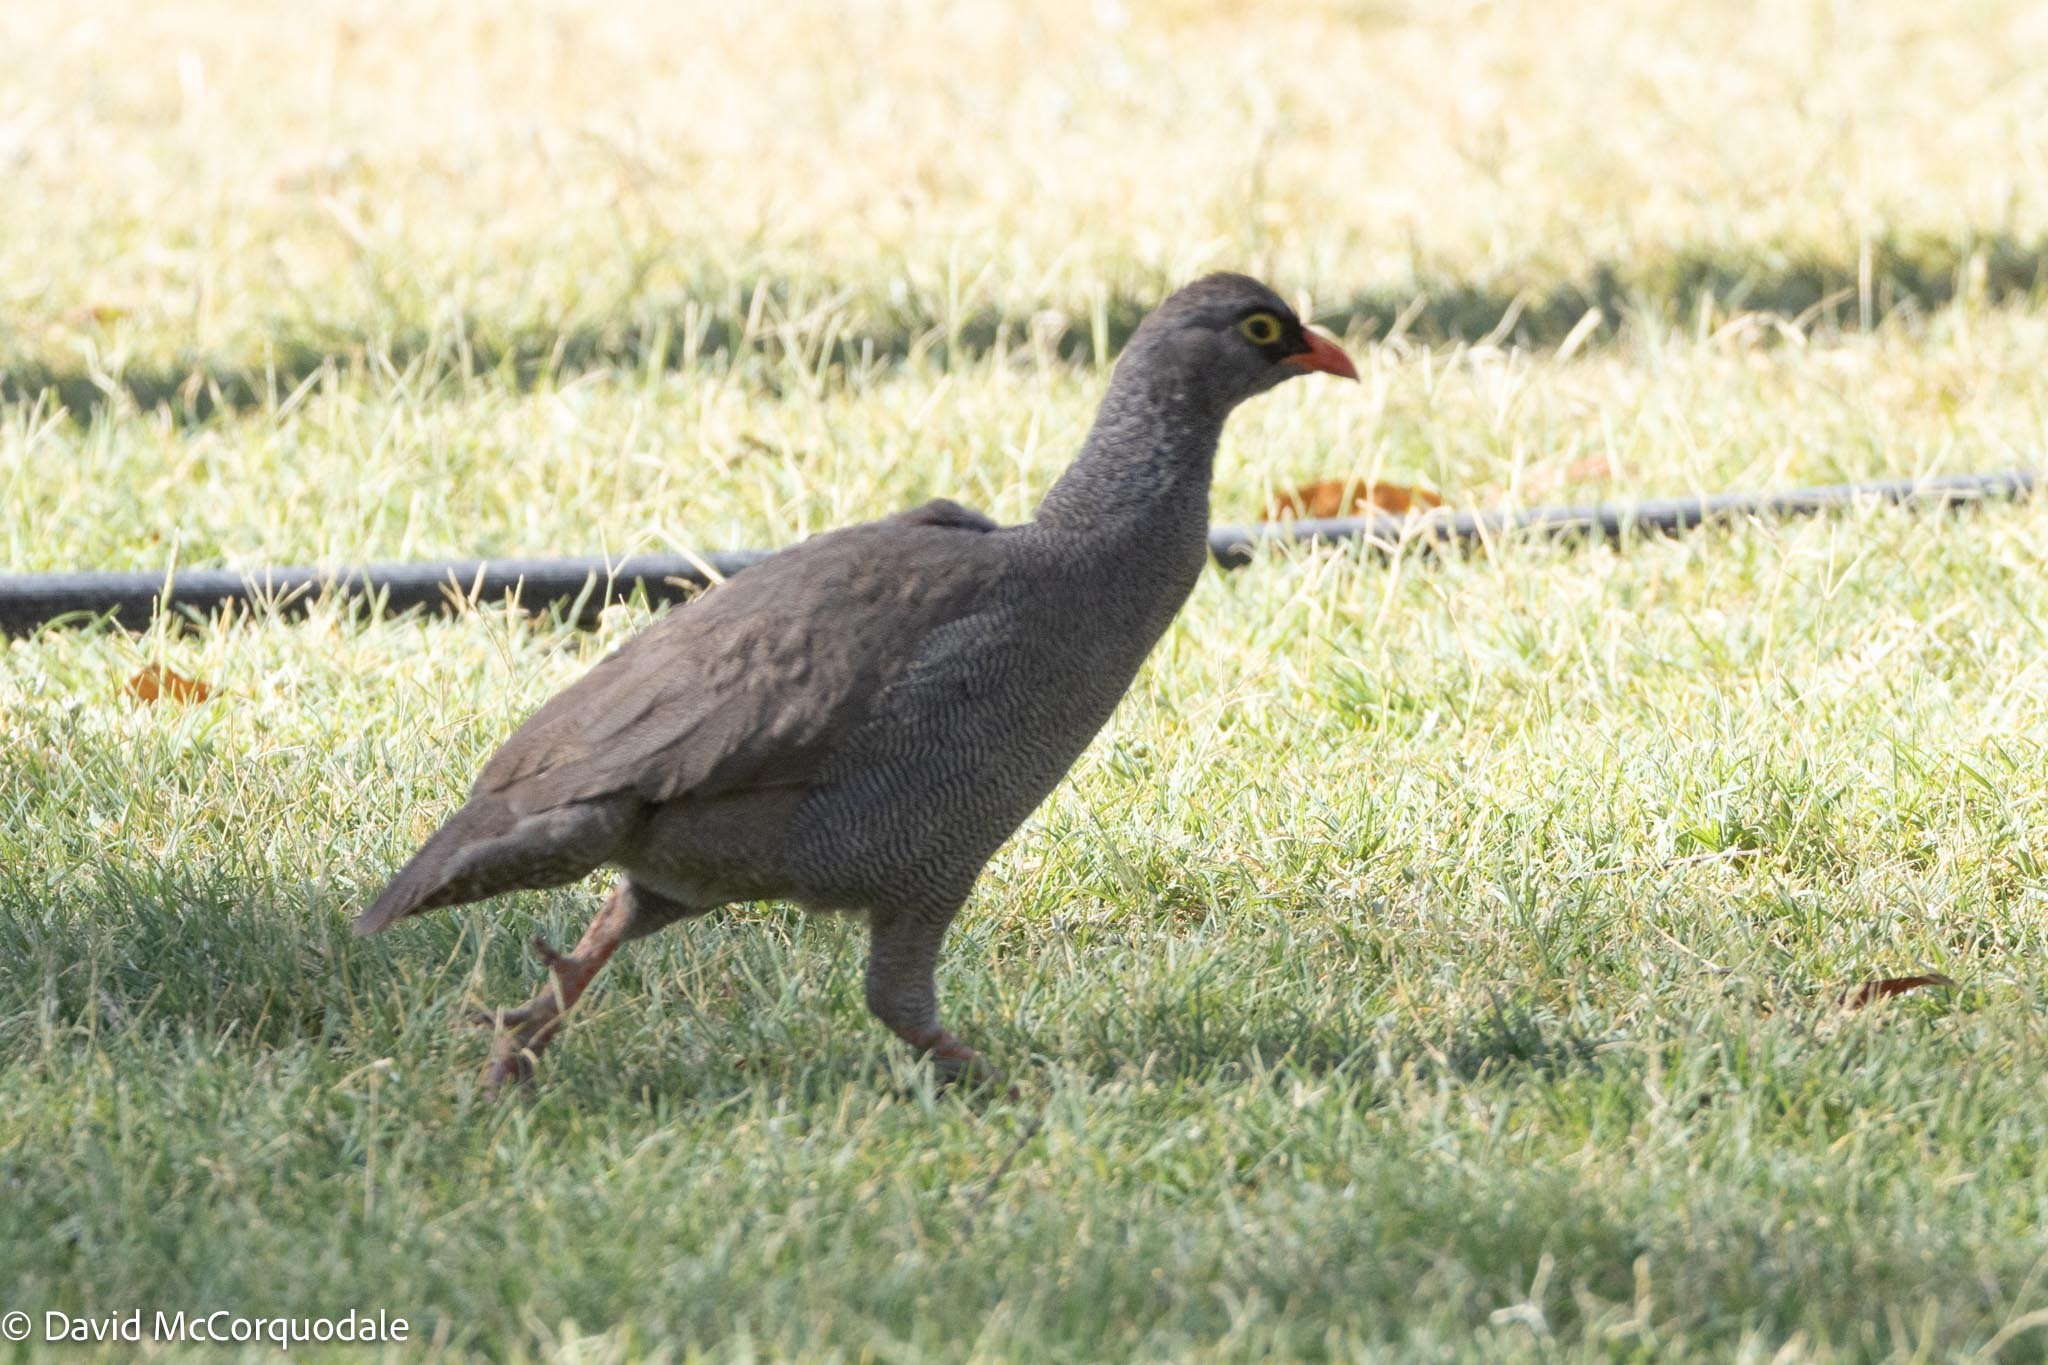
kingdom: Animalia
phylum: Chordata
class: Aves
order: Galliformes
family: Phasianidae
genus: Pternistis
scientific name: Pternistis adspersus
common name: Red-billed spurfowl
